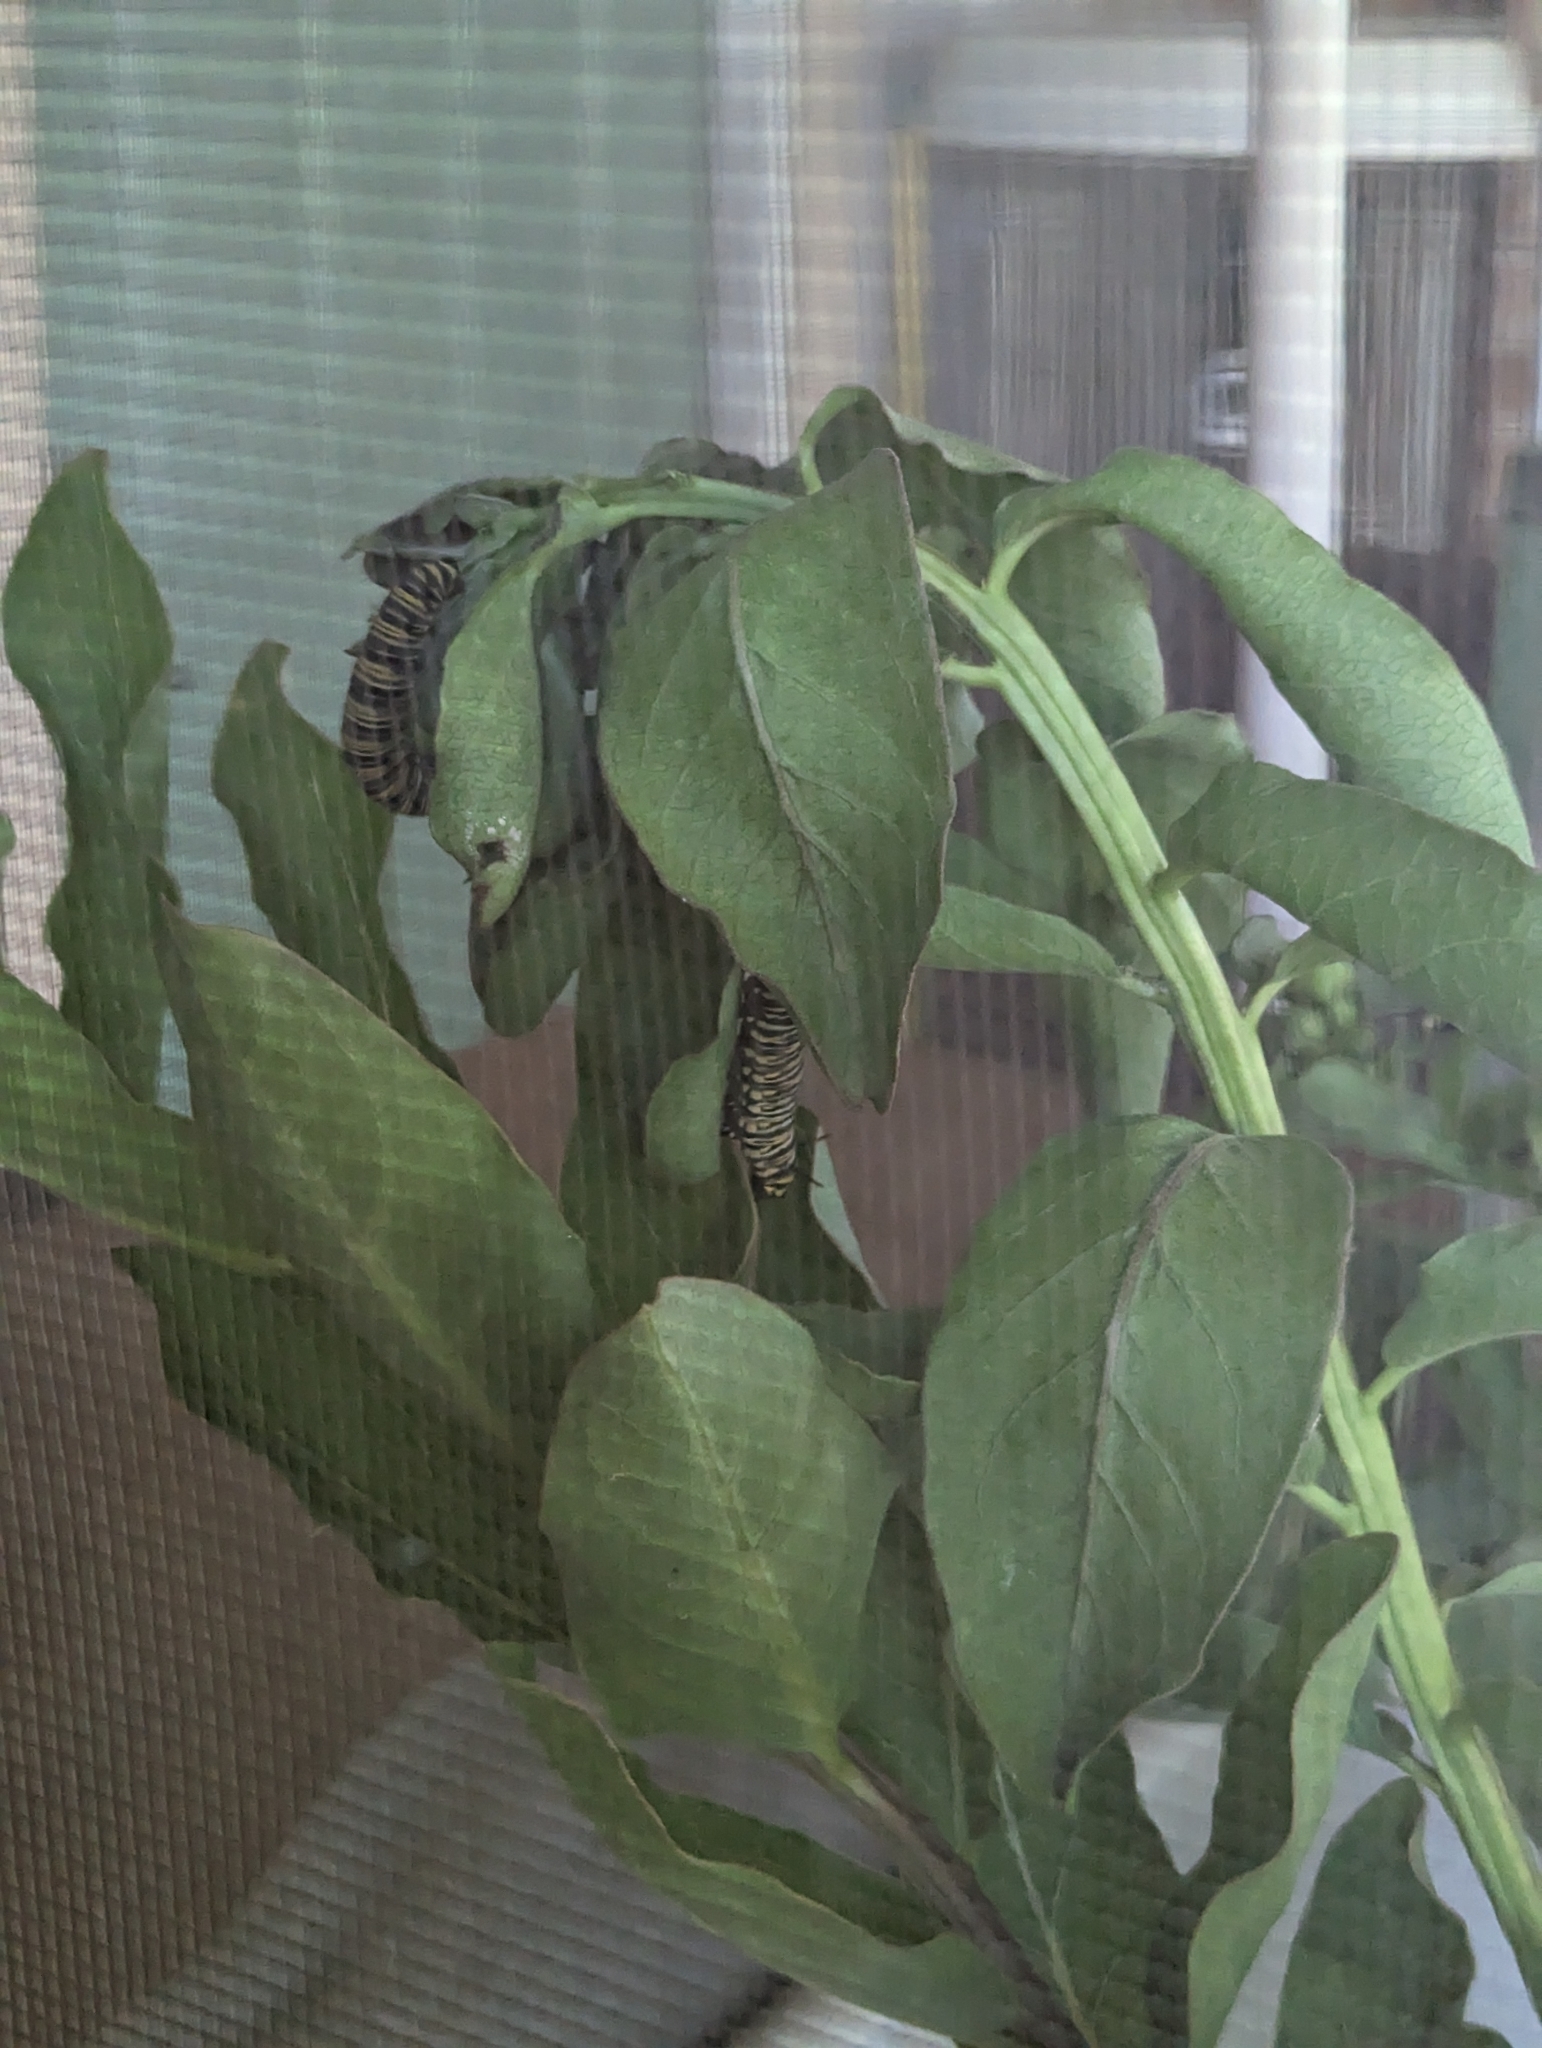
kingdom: Animalia
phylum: Arthropoda
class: Insecta
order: Lepidoptera
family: Nymphalidae
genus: Danaus
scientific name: Danaus plexippus
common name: Monarch
